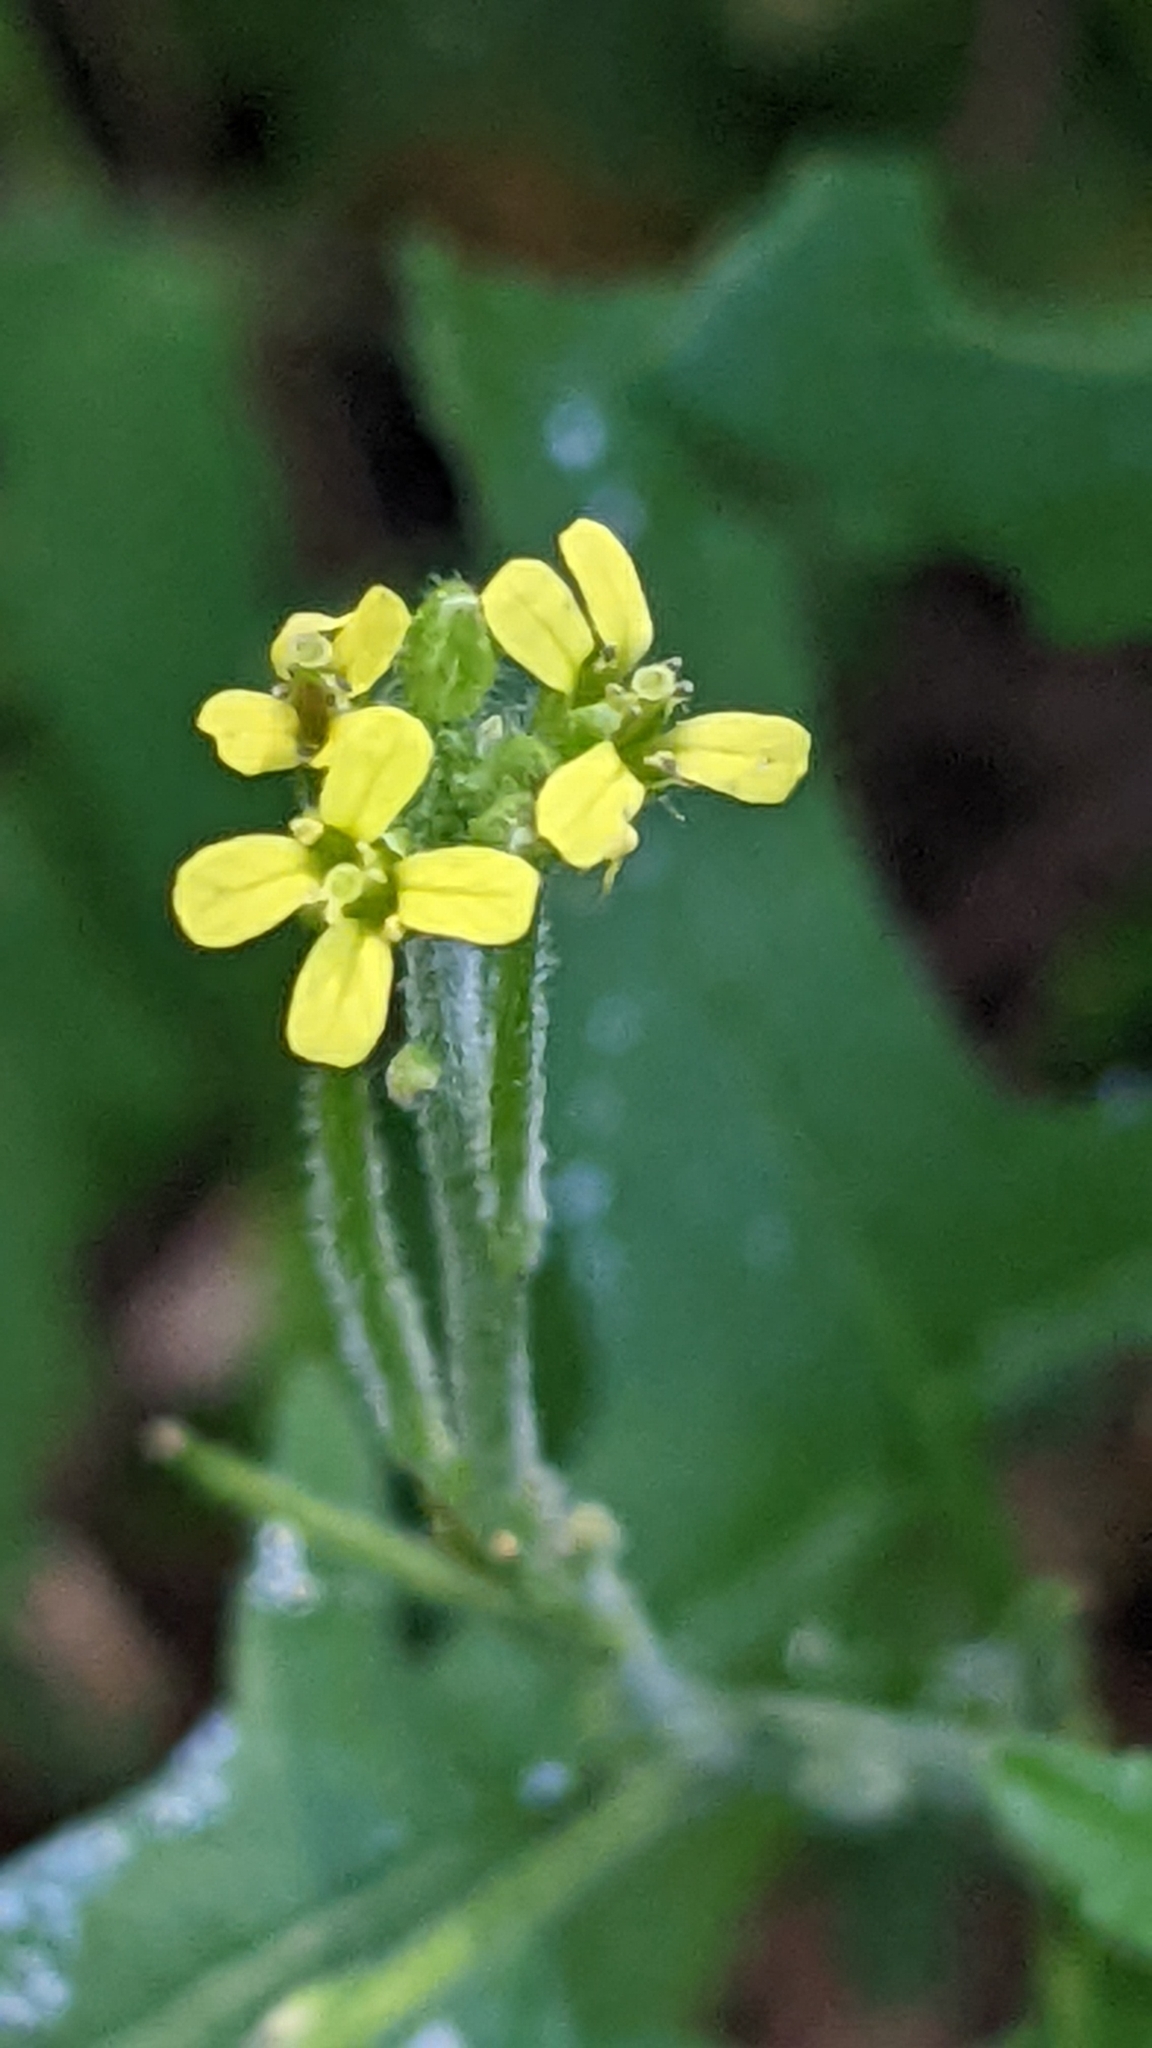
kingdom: Plantae
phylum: Tracheophyta
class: Magnoliopsida
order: Brassicales
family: Brassicaceae
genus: Sisymbrium
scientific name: Sisymbrium officinale
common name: Hedge mustard
